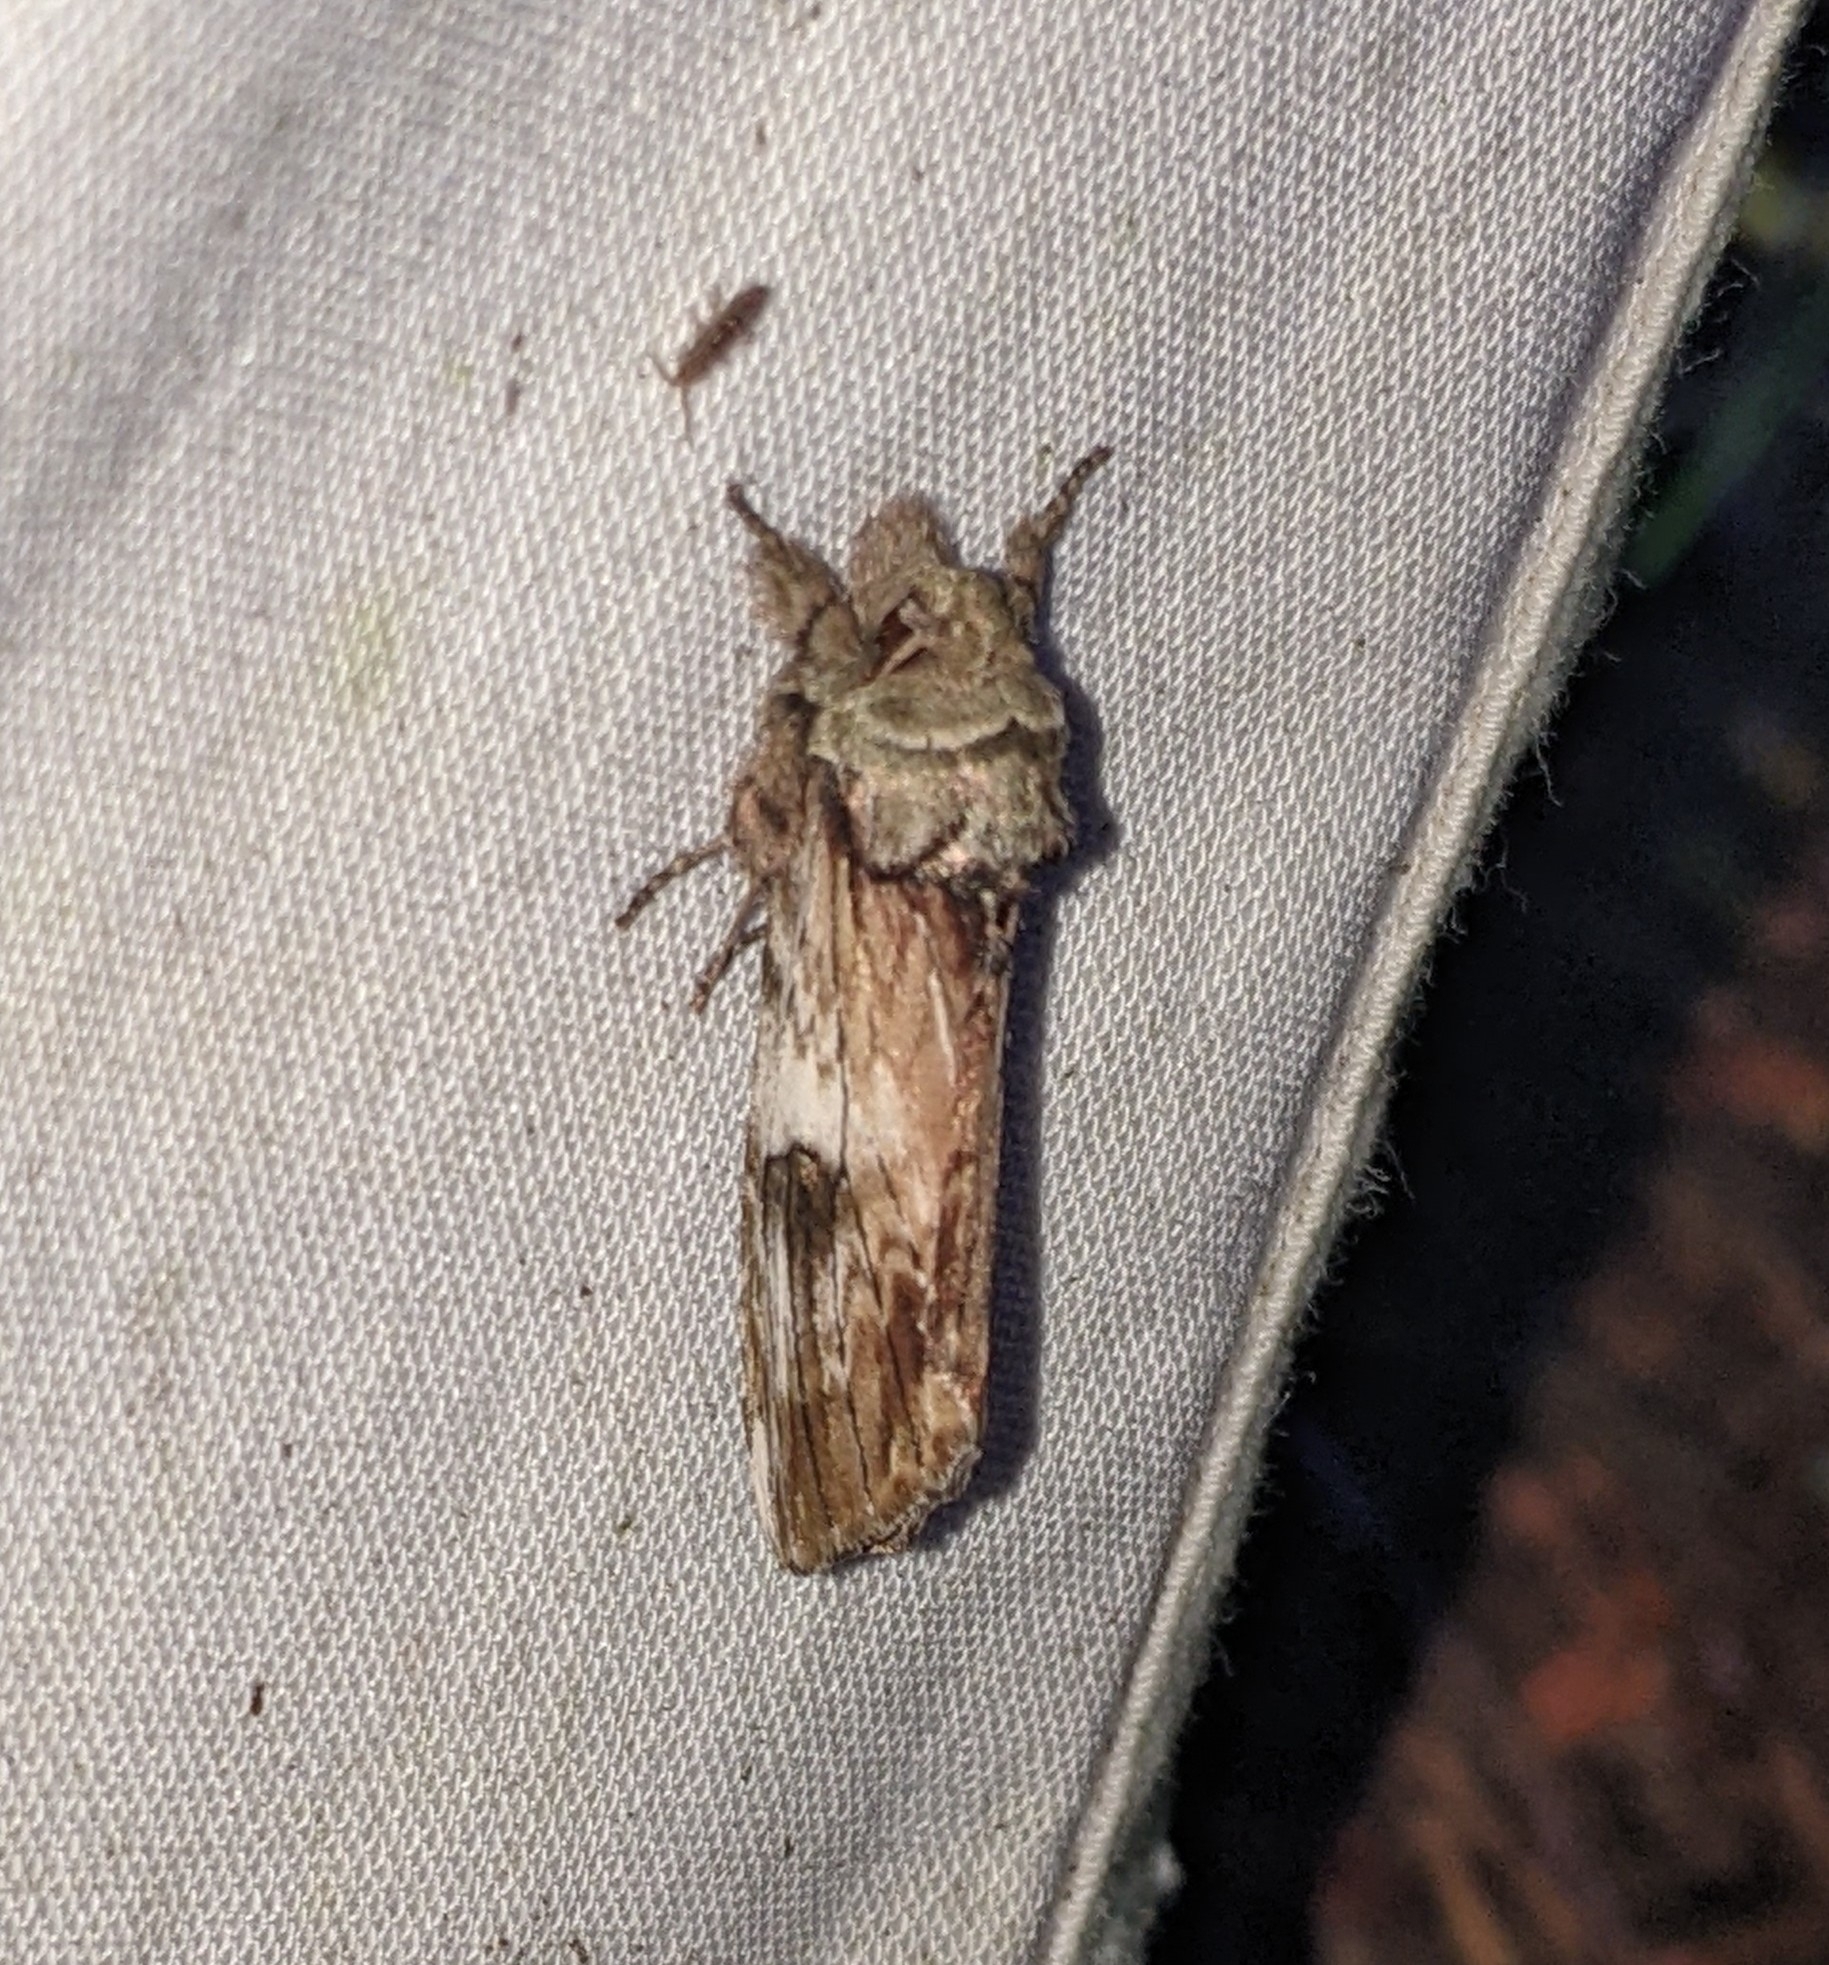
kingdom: Animalia
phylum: Arthropoda
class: Insecta
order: Lepidoptera
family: Notodontidae
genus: Schizura
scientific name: Schizura
